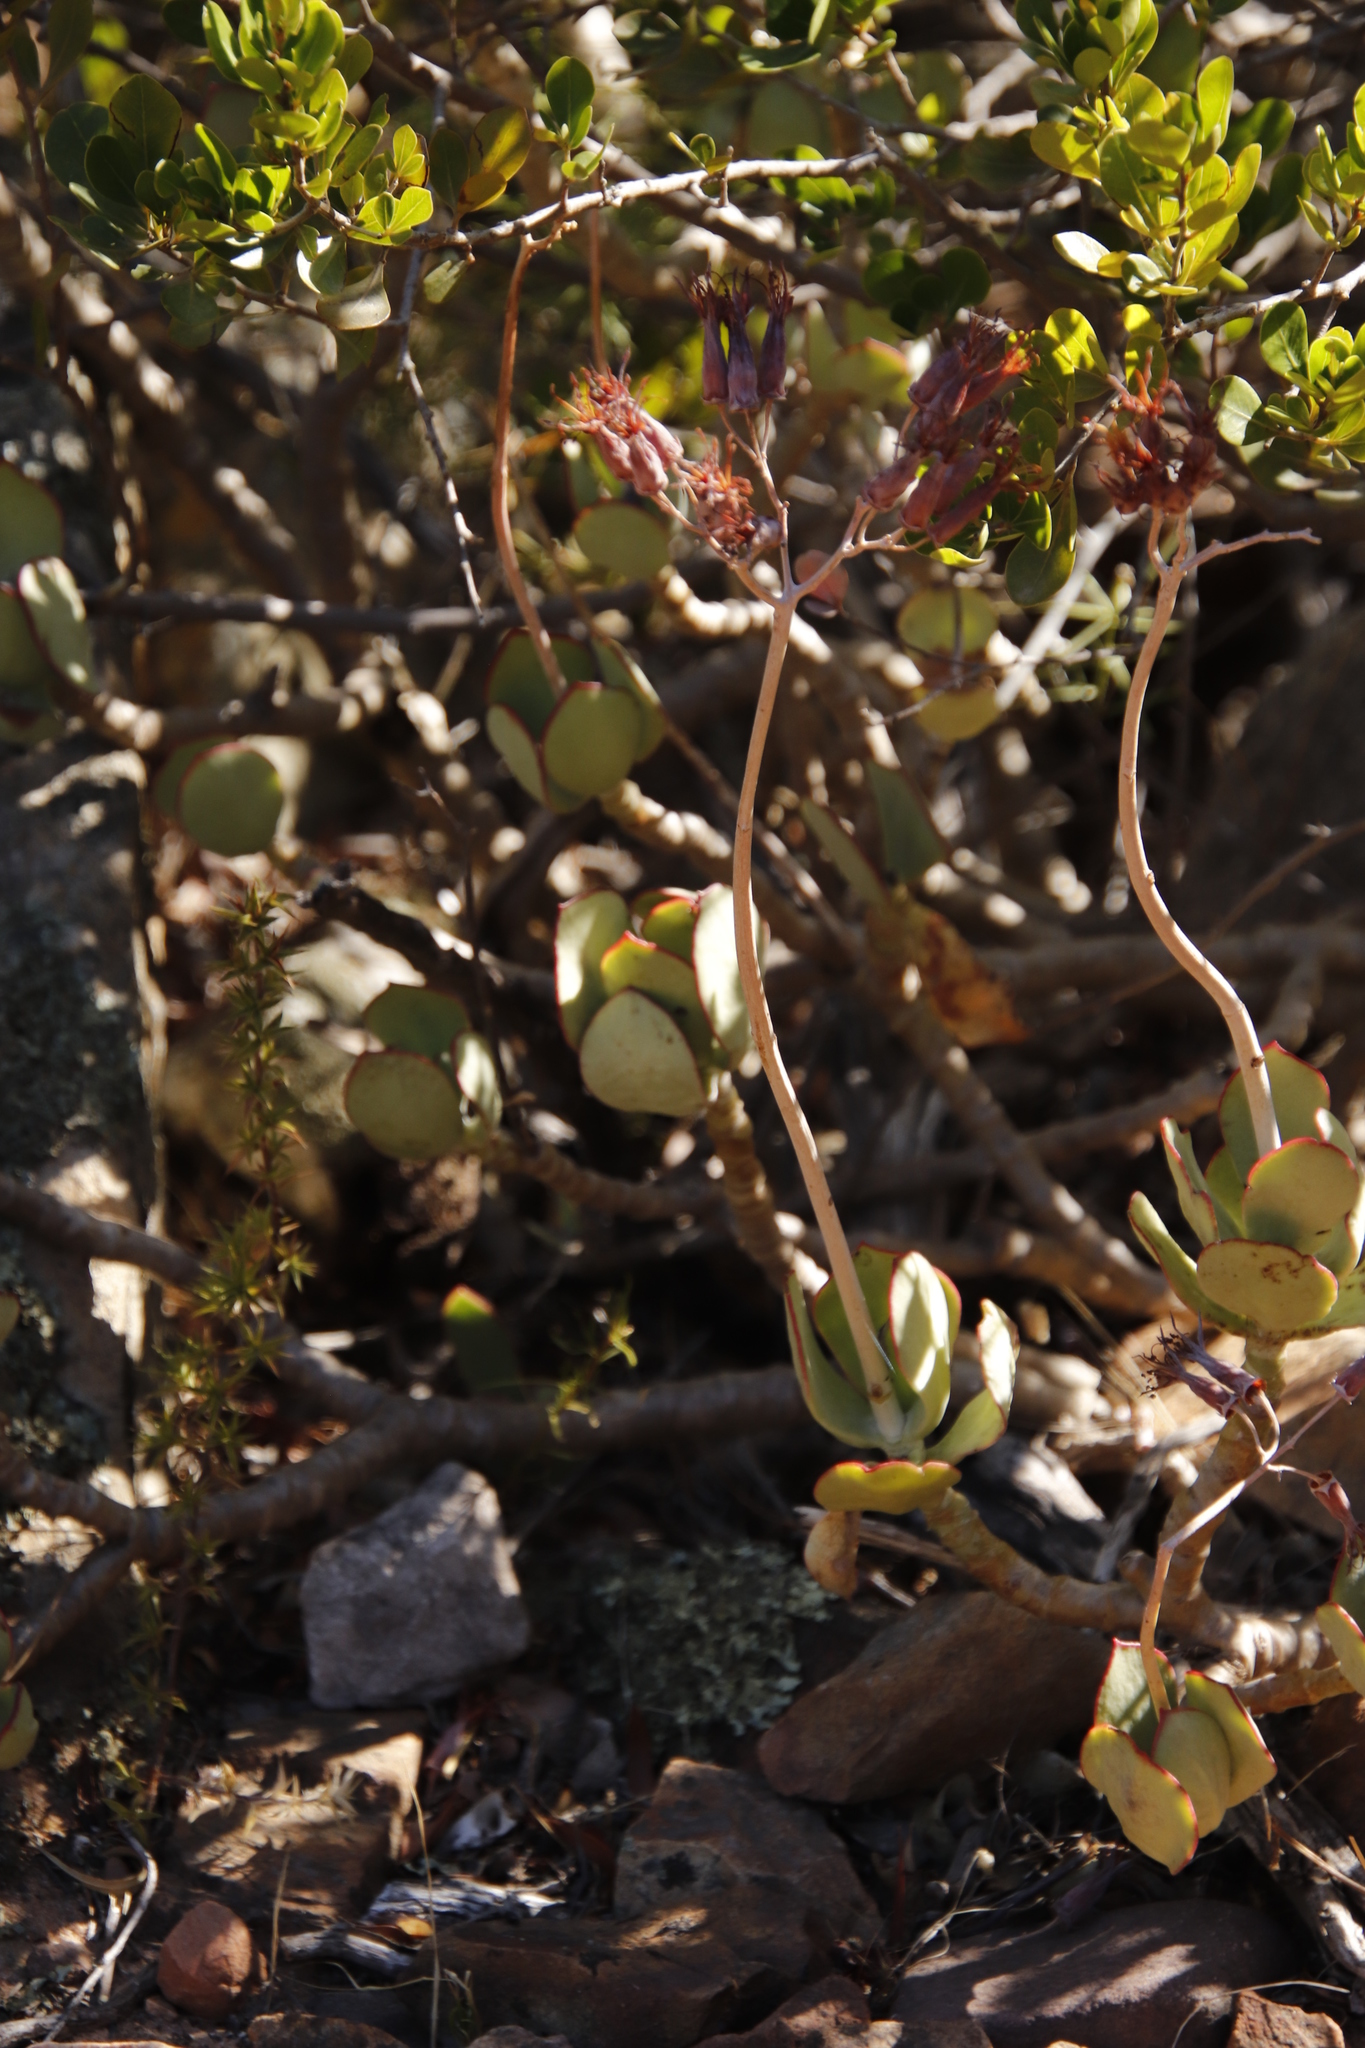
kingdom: Plantae
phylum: Tracheophyta
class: Magnoliopsida
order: Saxifragales
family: Crassulaceae
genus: Cotyledon
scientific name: Cotyledon orbiculata
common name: Pig's ear
